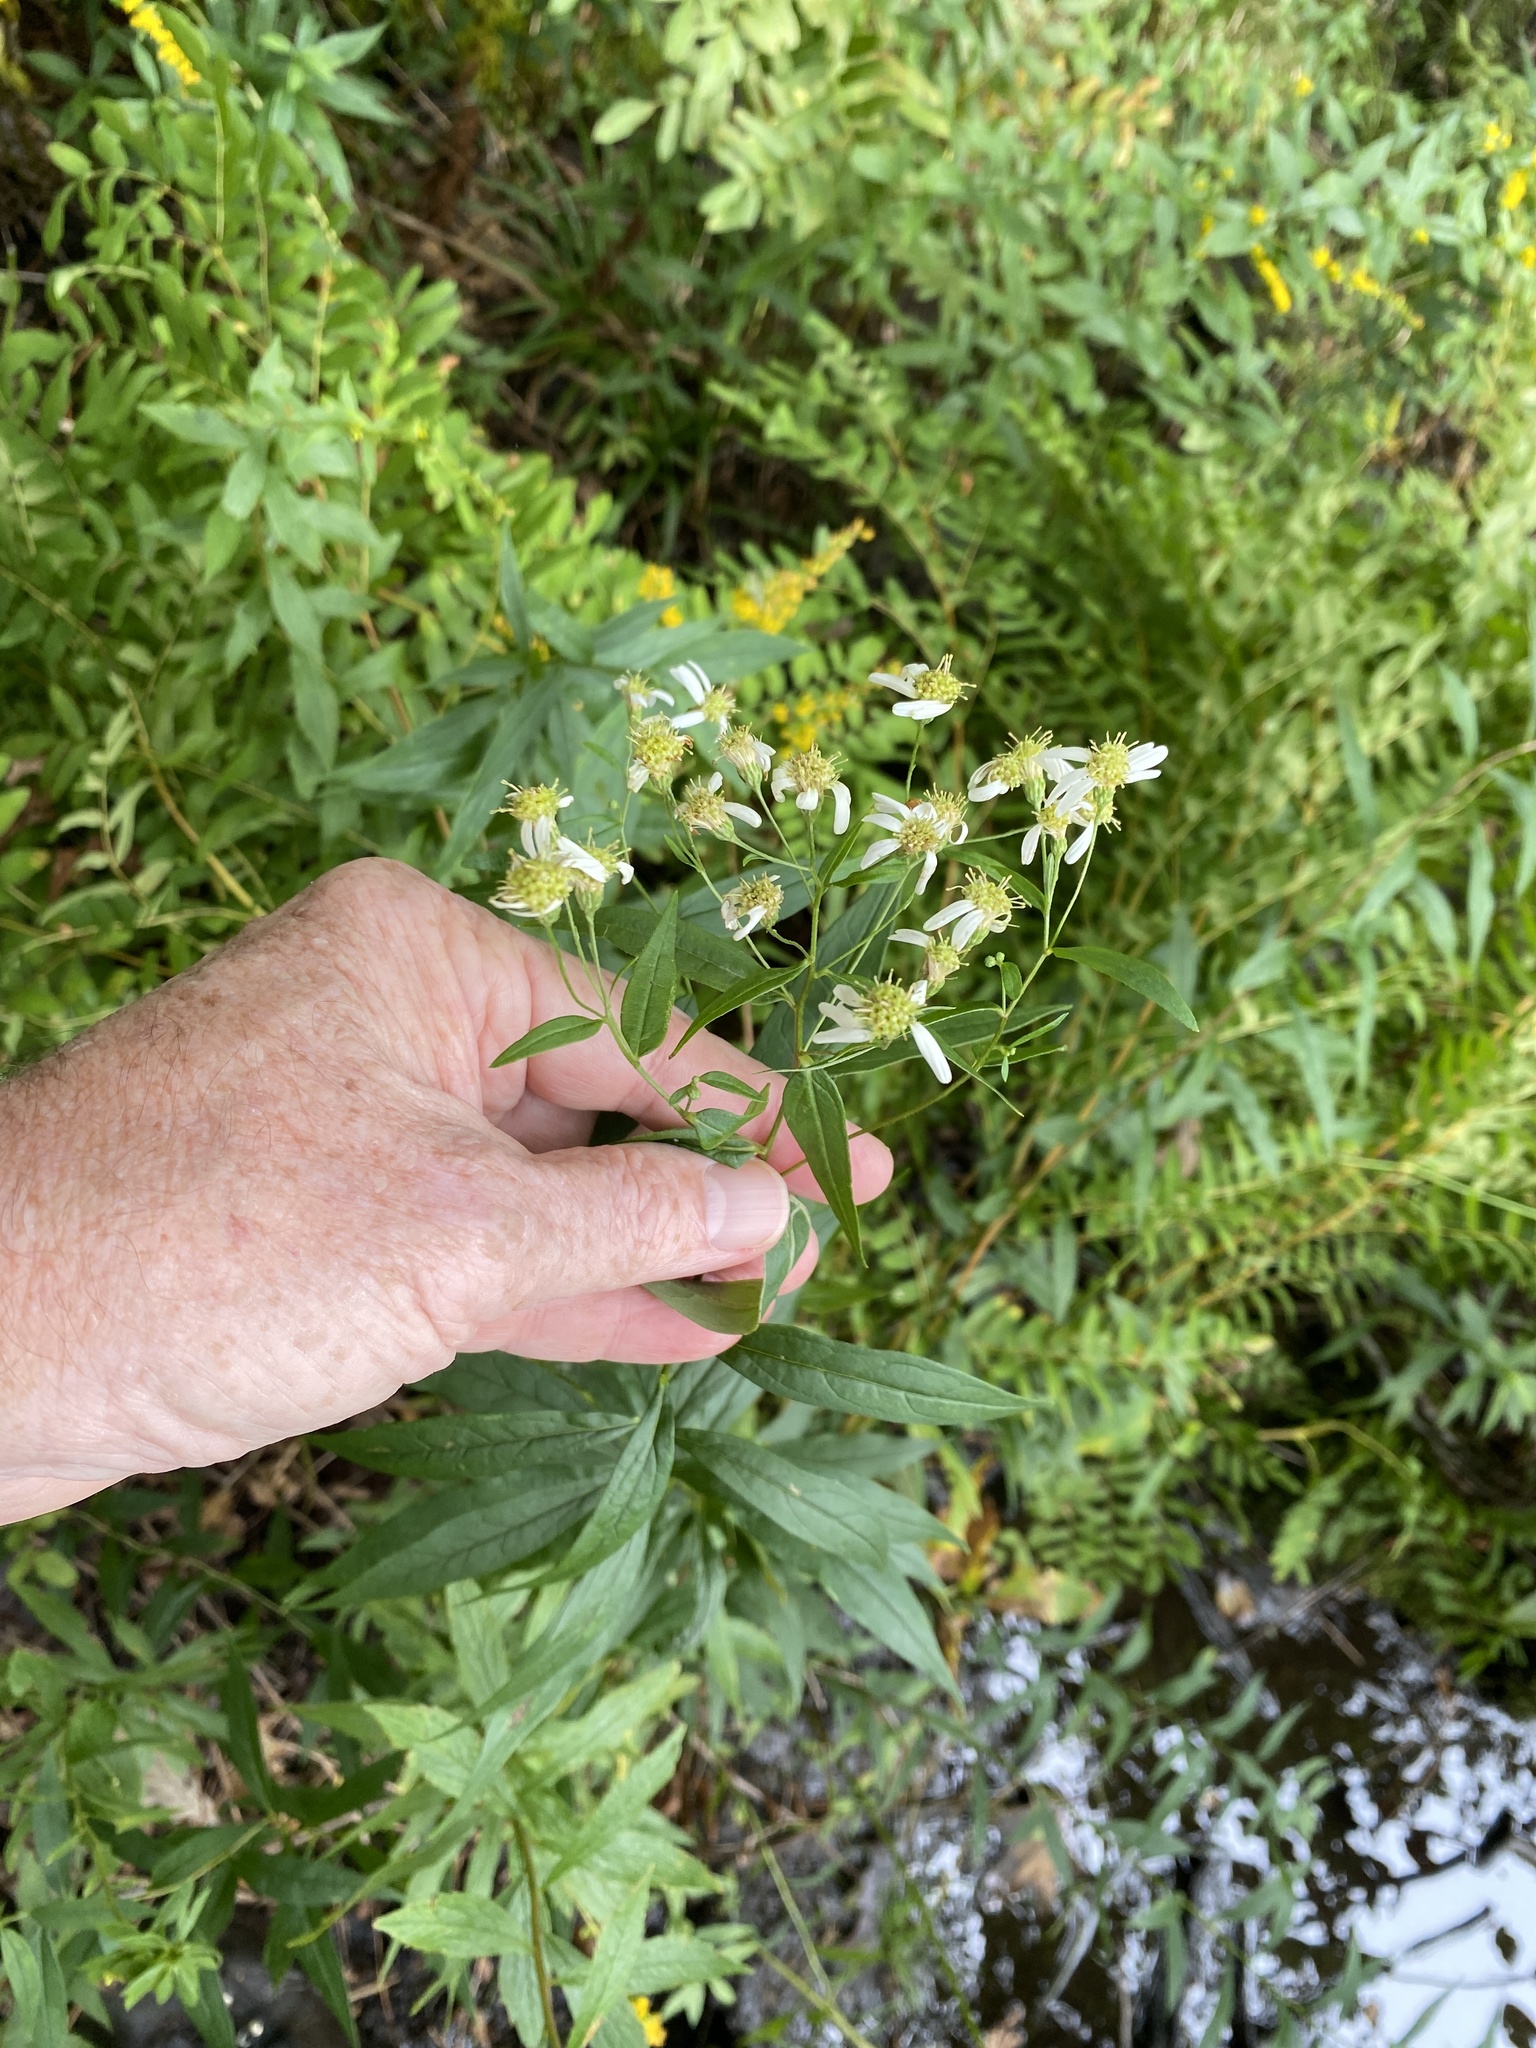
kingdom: Plantae
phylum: Tracheophyta
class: Magnoliopsida
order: Asterales
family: Asteraceae
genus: Doellingeria
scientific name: Doellingeria umbellata
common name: Flat-top white aster
